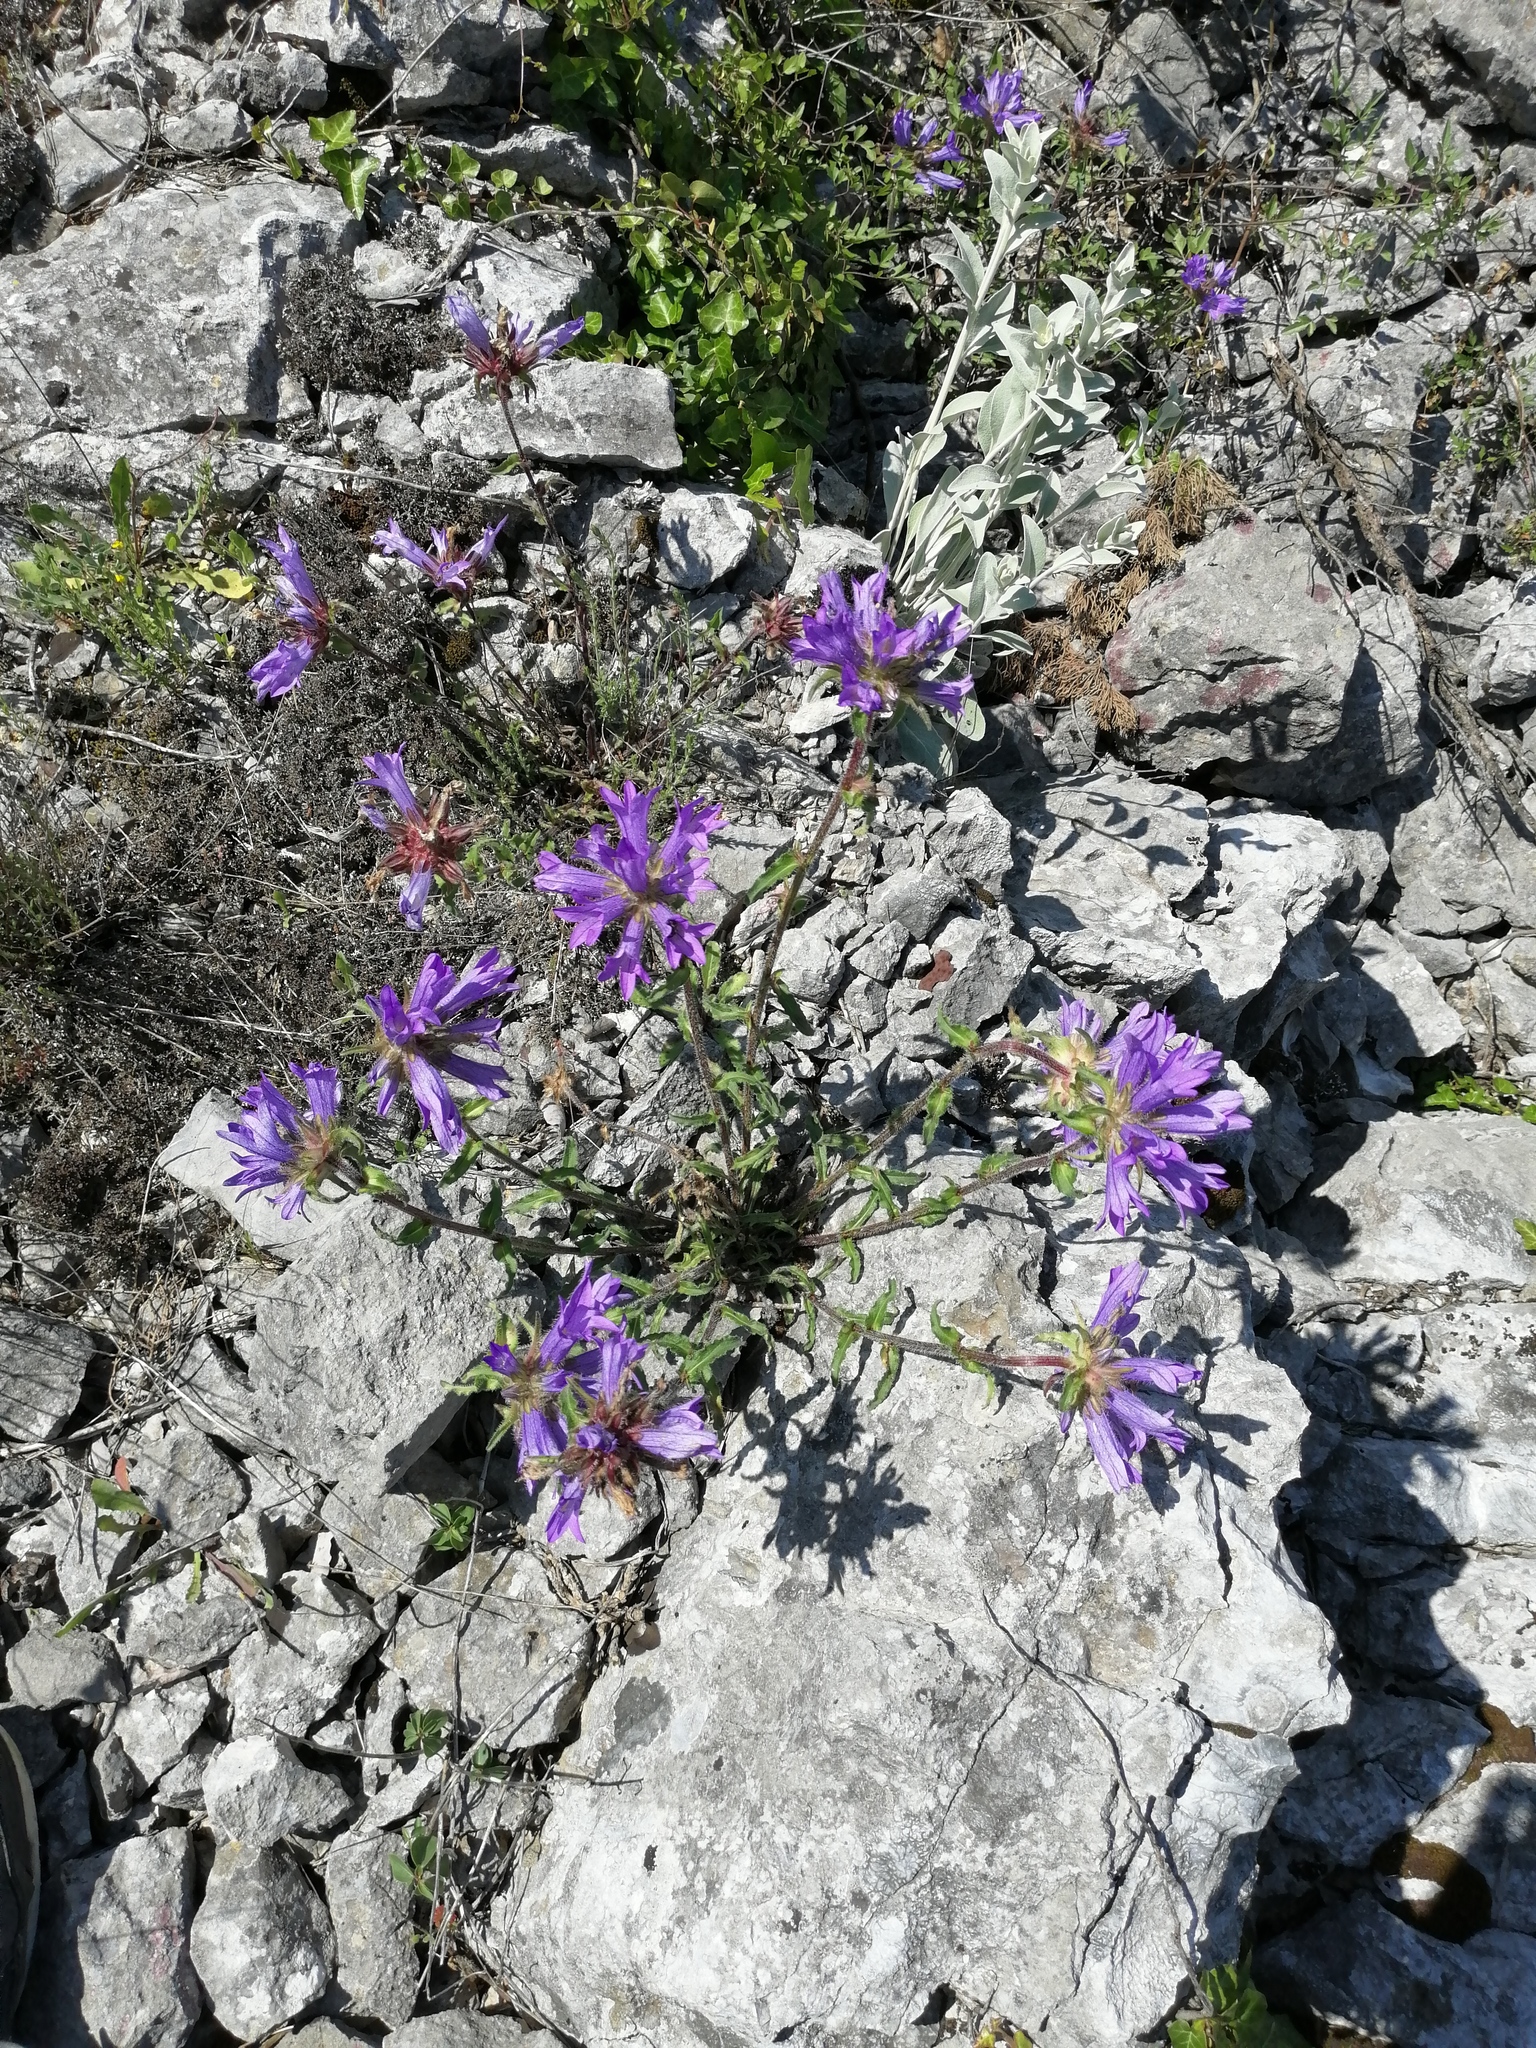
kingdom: Plantae
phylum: Tracheophyta
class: Magnoliopsida
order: Asterales
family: Campanulaceae
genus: Campanula
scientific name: Campanula lingulata
